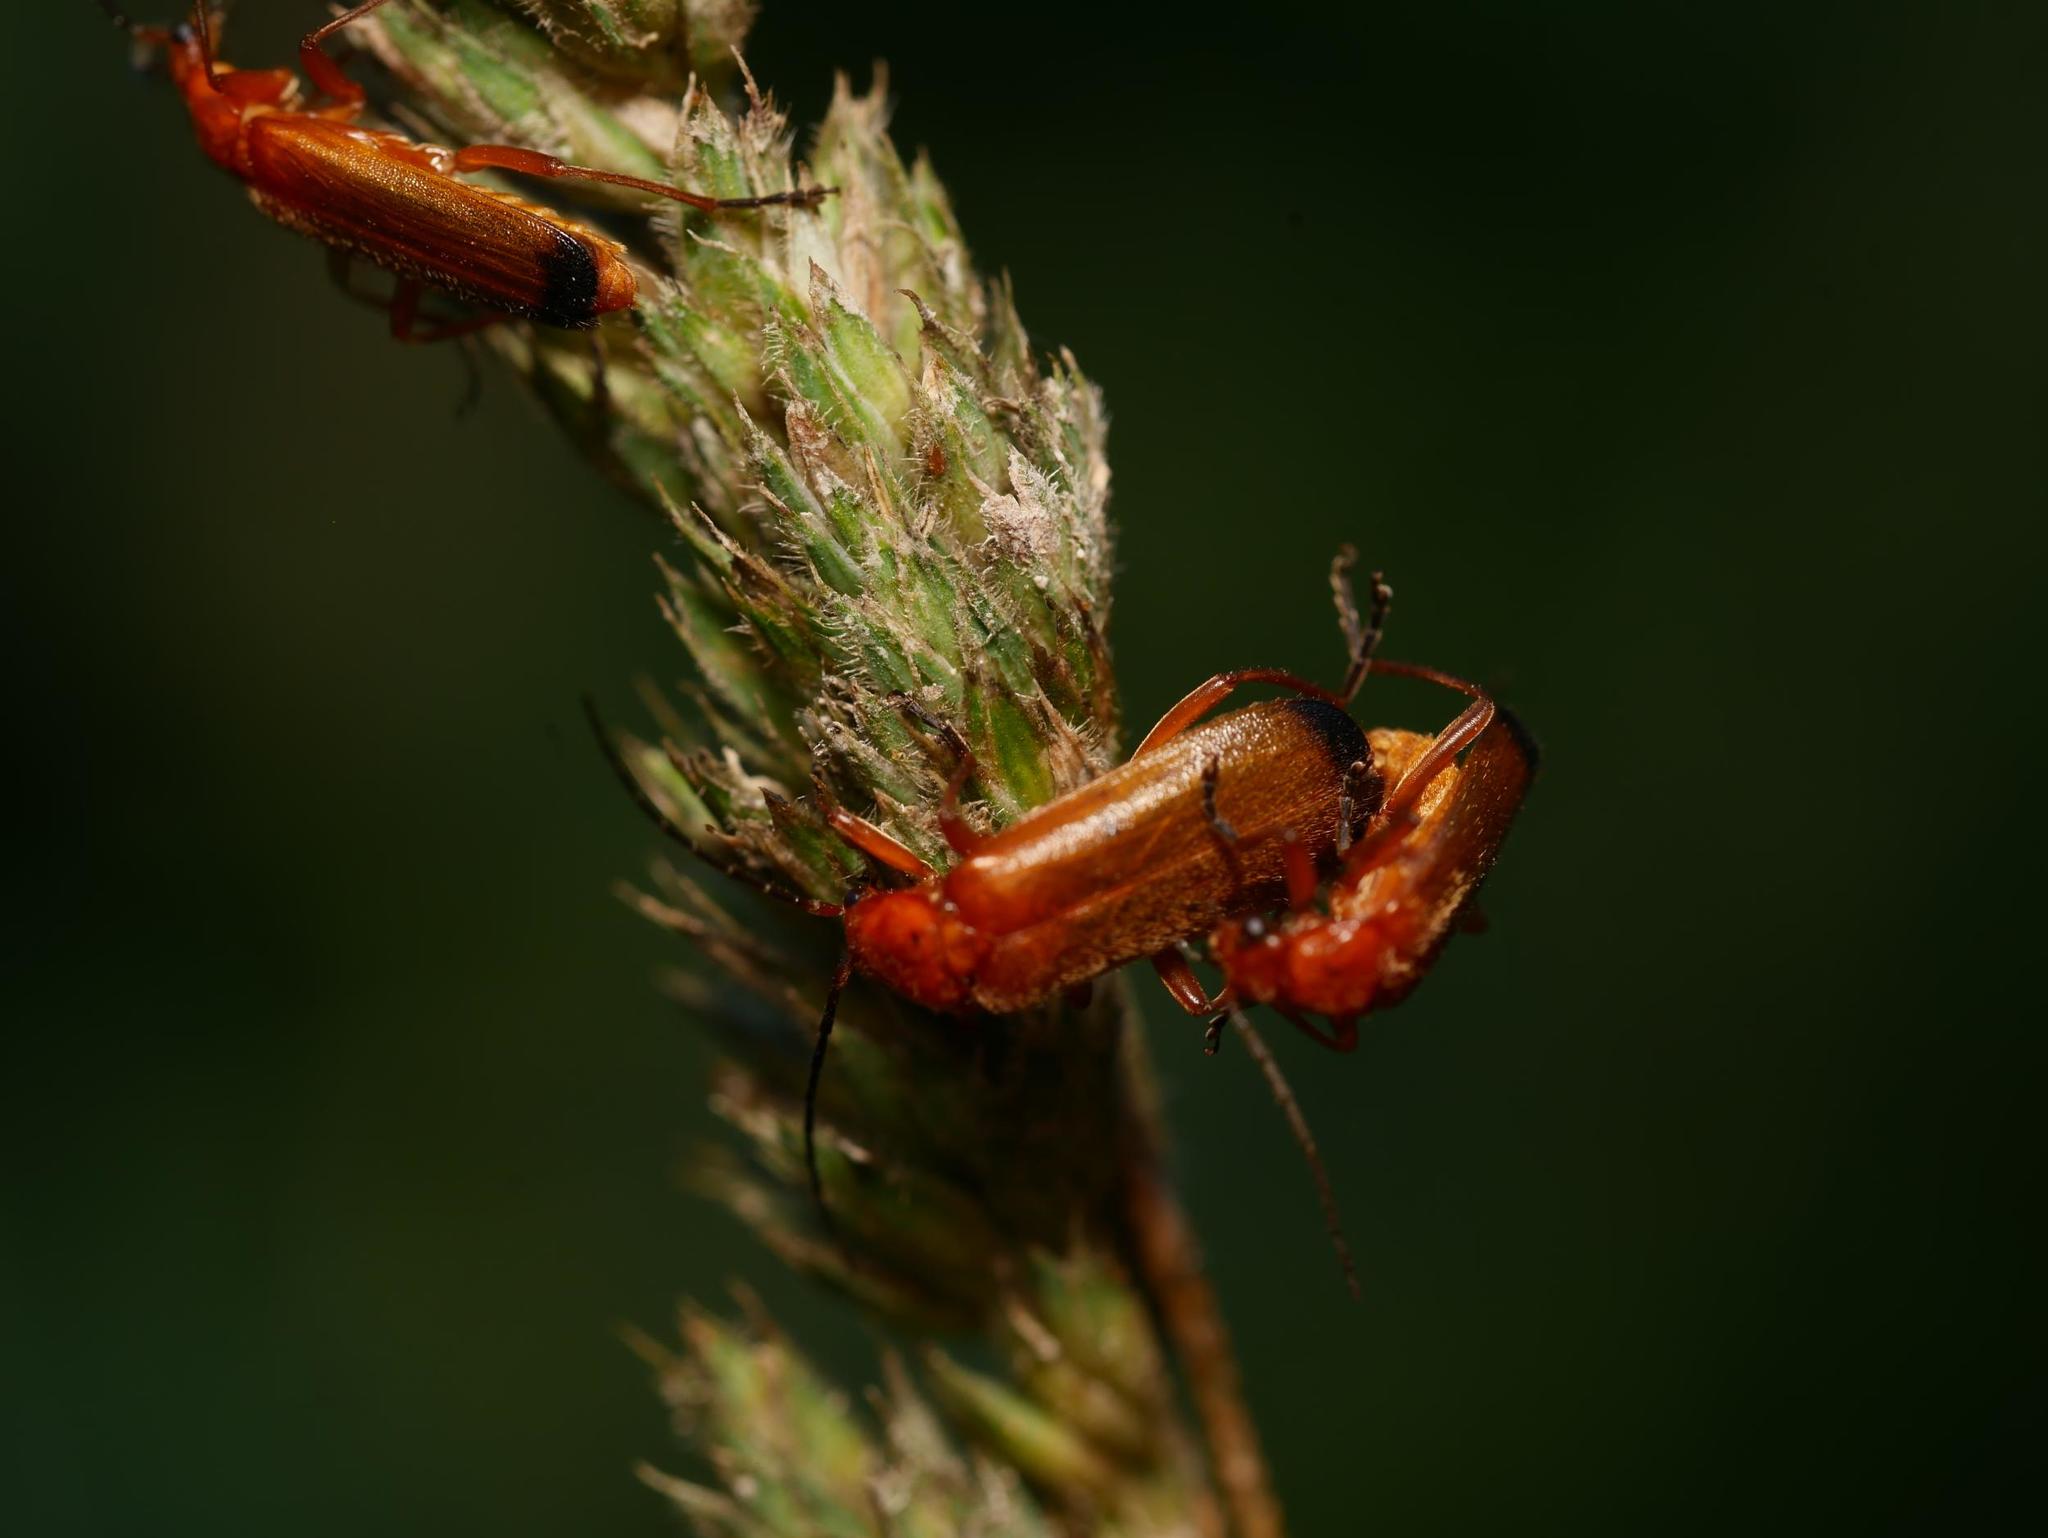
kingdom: Animalia
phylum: Arthropoda
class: Insecta
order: Coleoptera
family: Cantharidae
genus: Rhagonycha
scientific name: Rhagonycha fulva
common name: Common red soldier beetle
